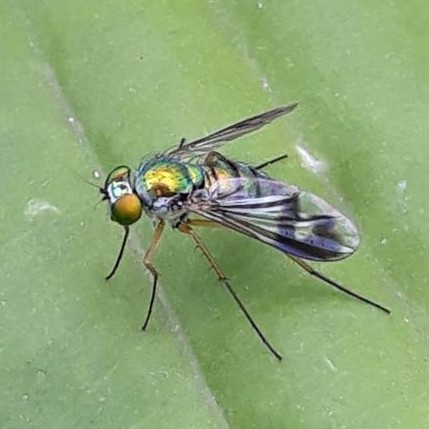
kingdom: Animalia
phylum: Arthropoda
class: Insecta
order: Diptera
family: Dolichopodidae
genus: Condylostylus
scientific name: Condylostylus
